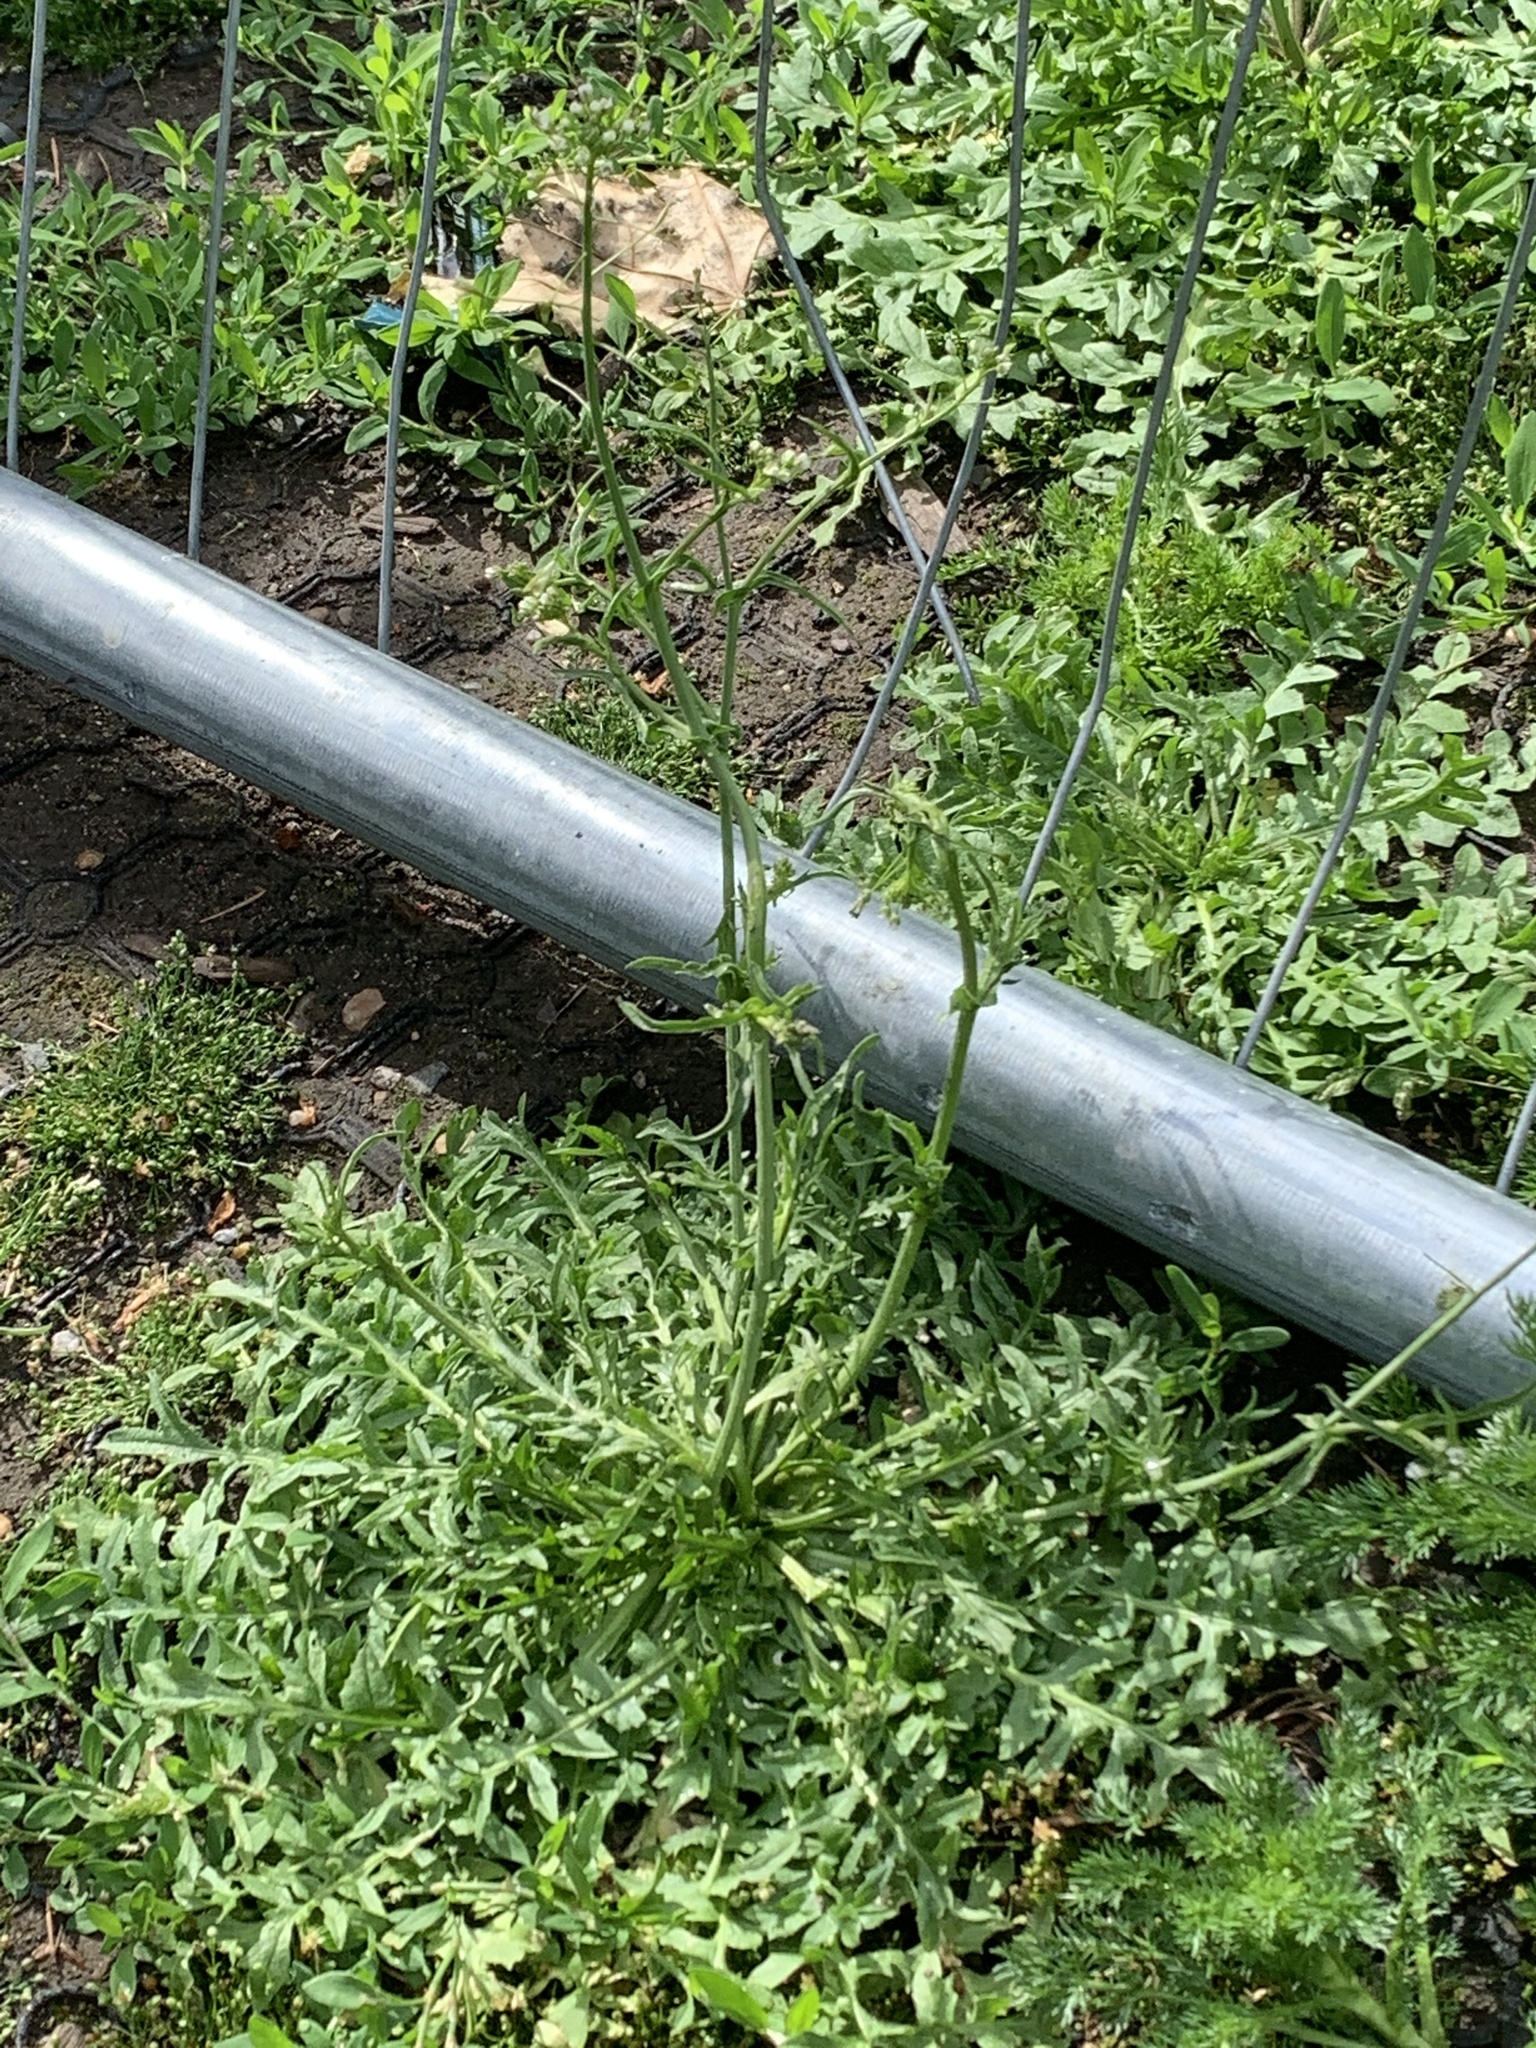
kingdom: Plantae
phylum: Tracheophyta
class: Magnoliopsida
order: Brassicales
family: Brassicaceae
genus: Capsella
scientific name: Capsella bursa-pastoris
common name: Shepherd's purse
